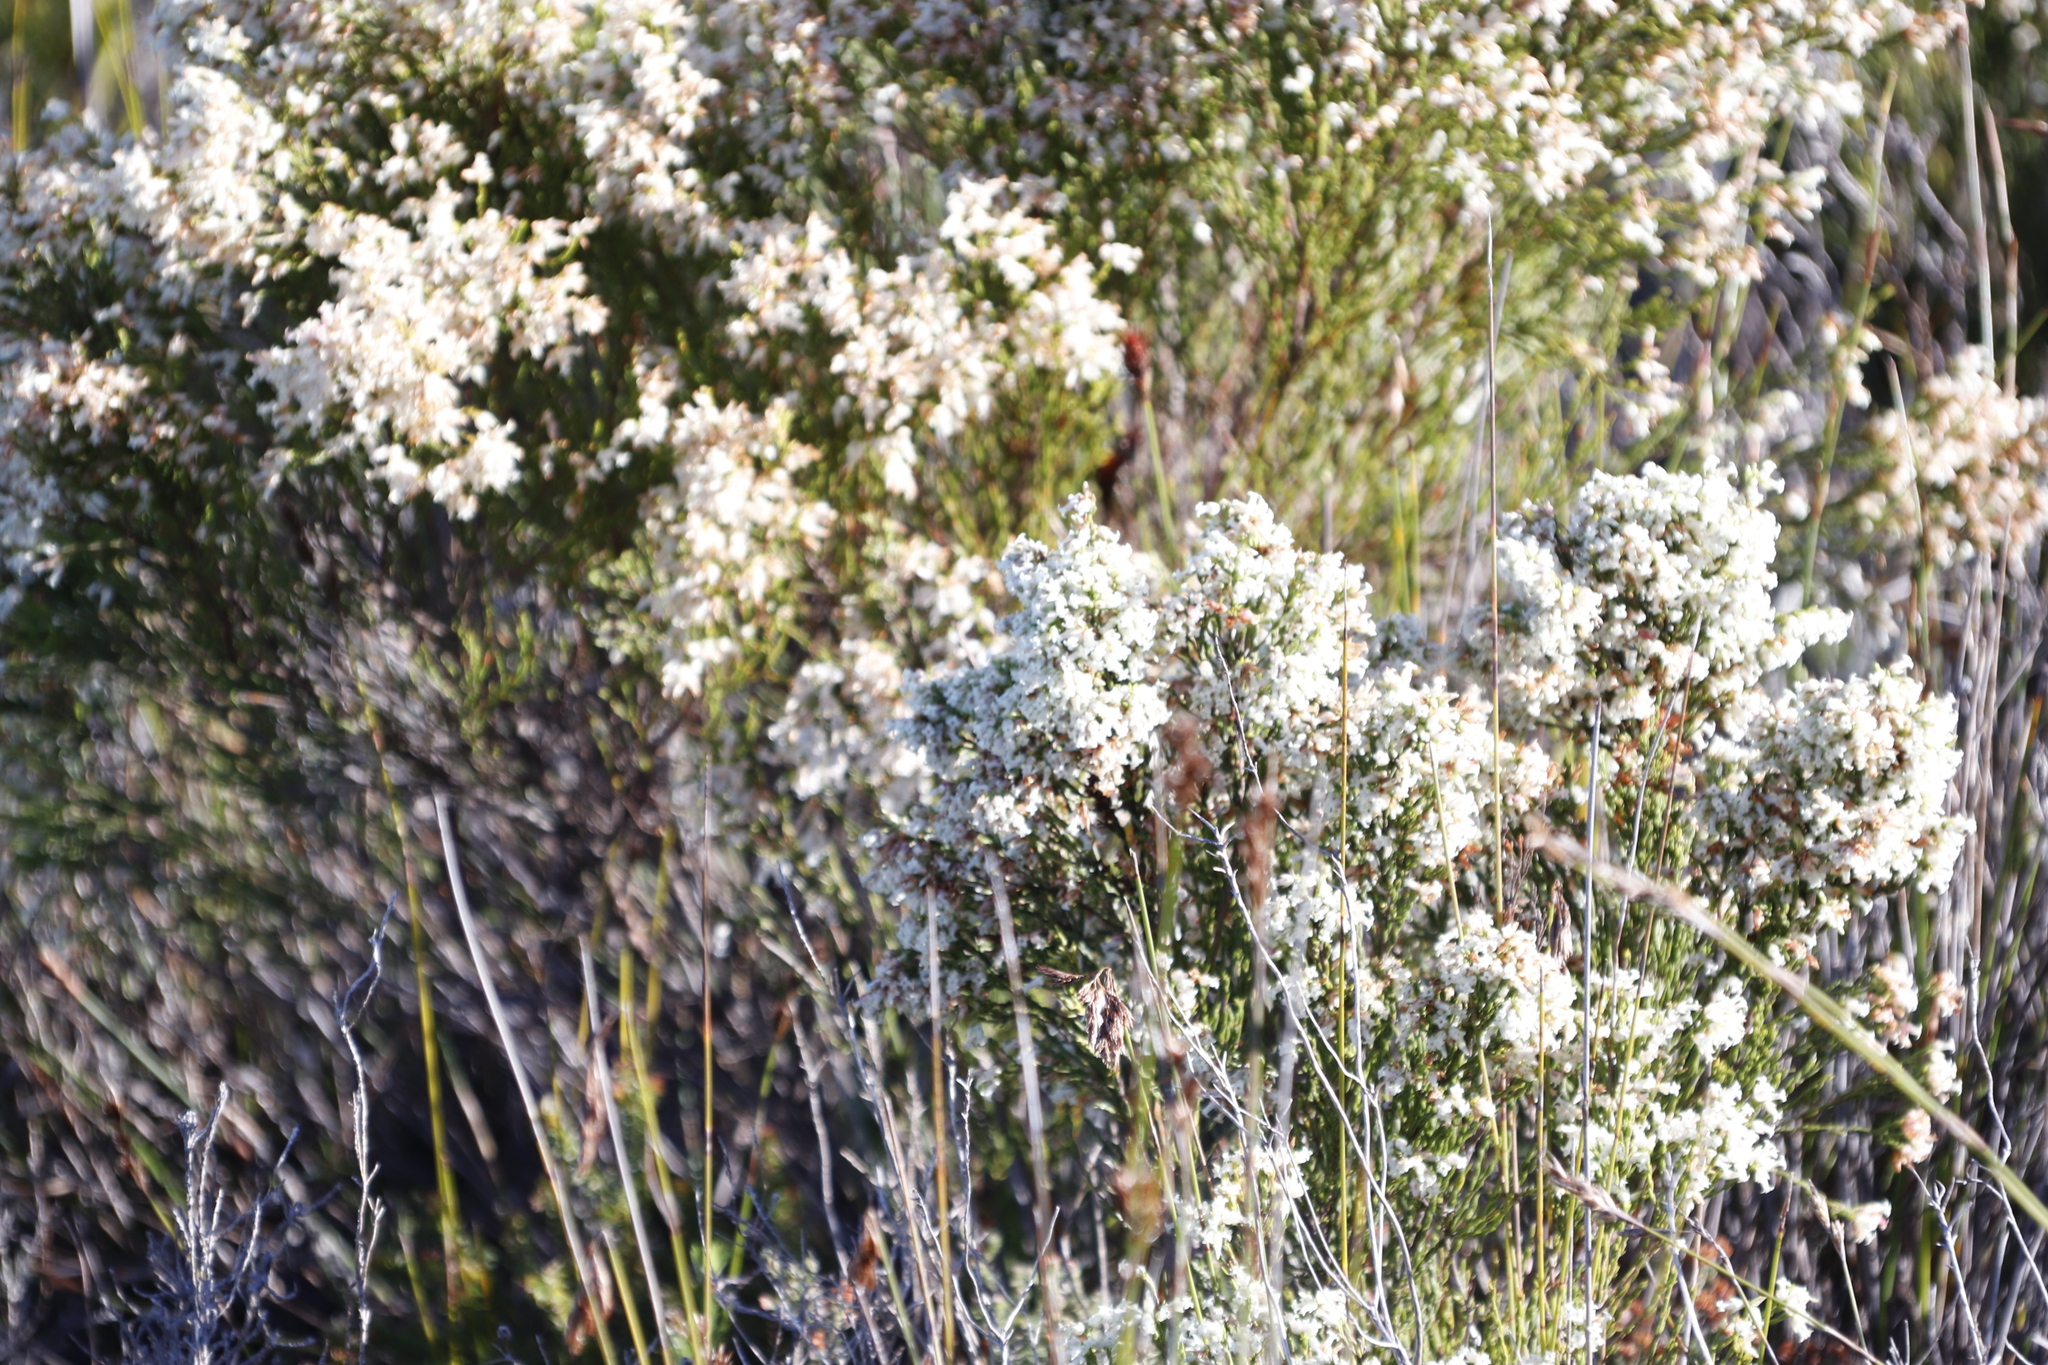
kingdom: Plantae
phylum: Tracheophyta
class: Magnoliopsida
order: Ericales
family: Ericaceae
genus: Erica
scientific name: Erica lutea
